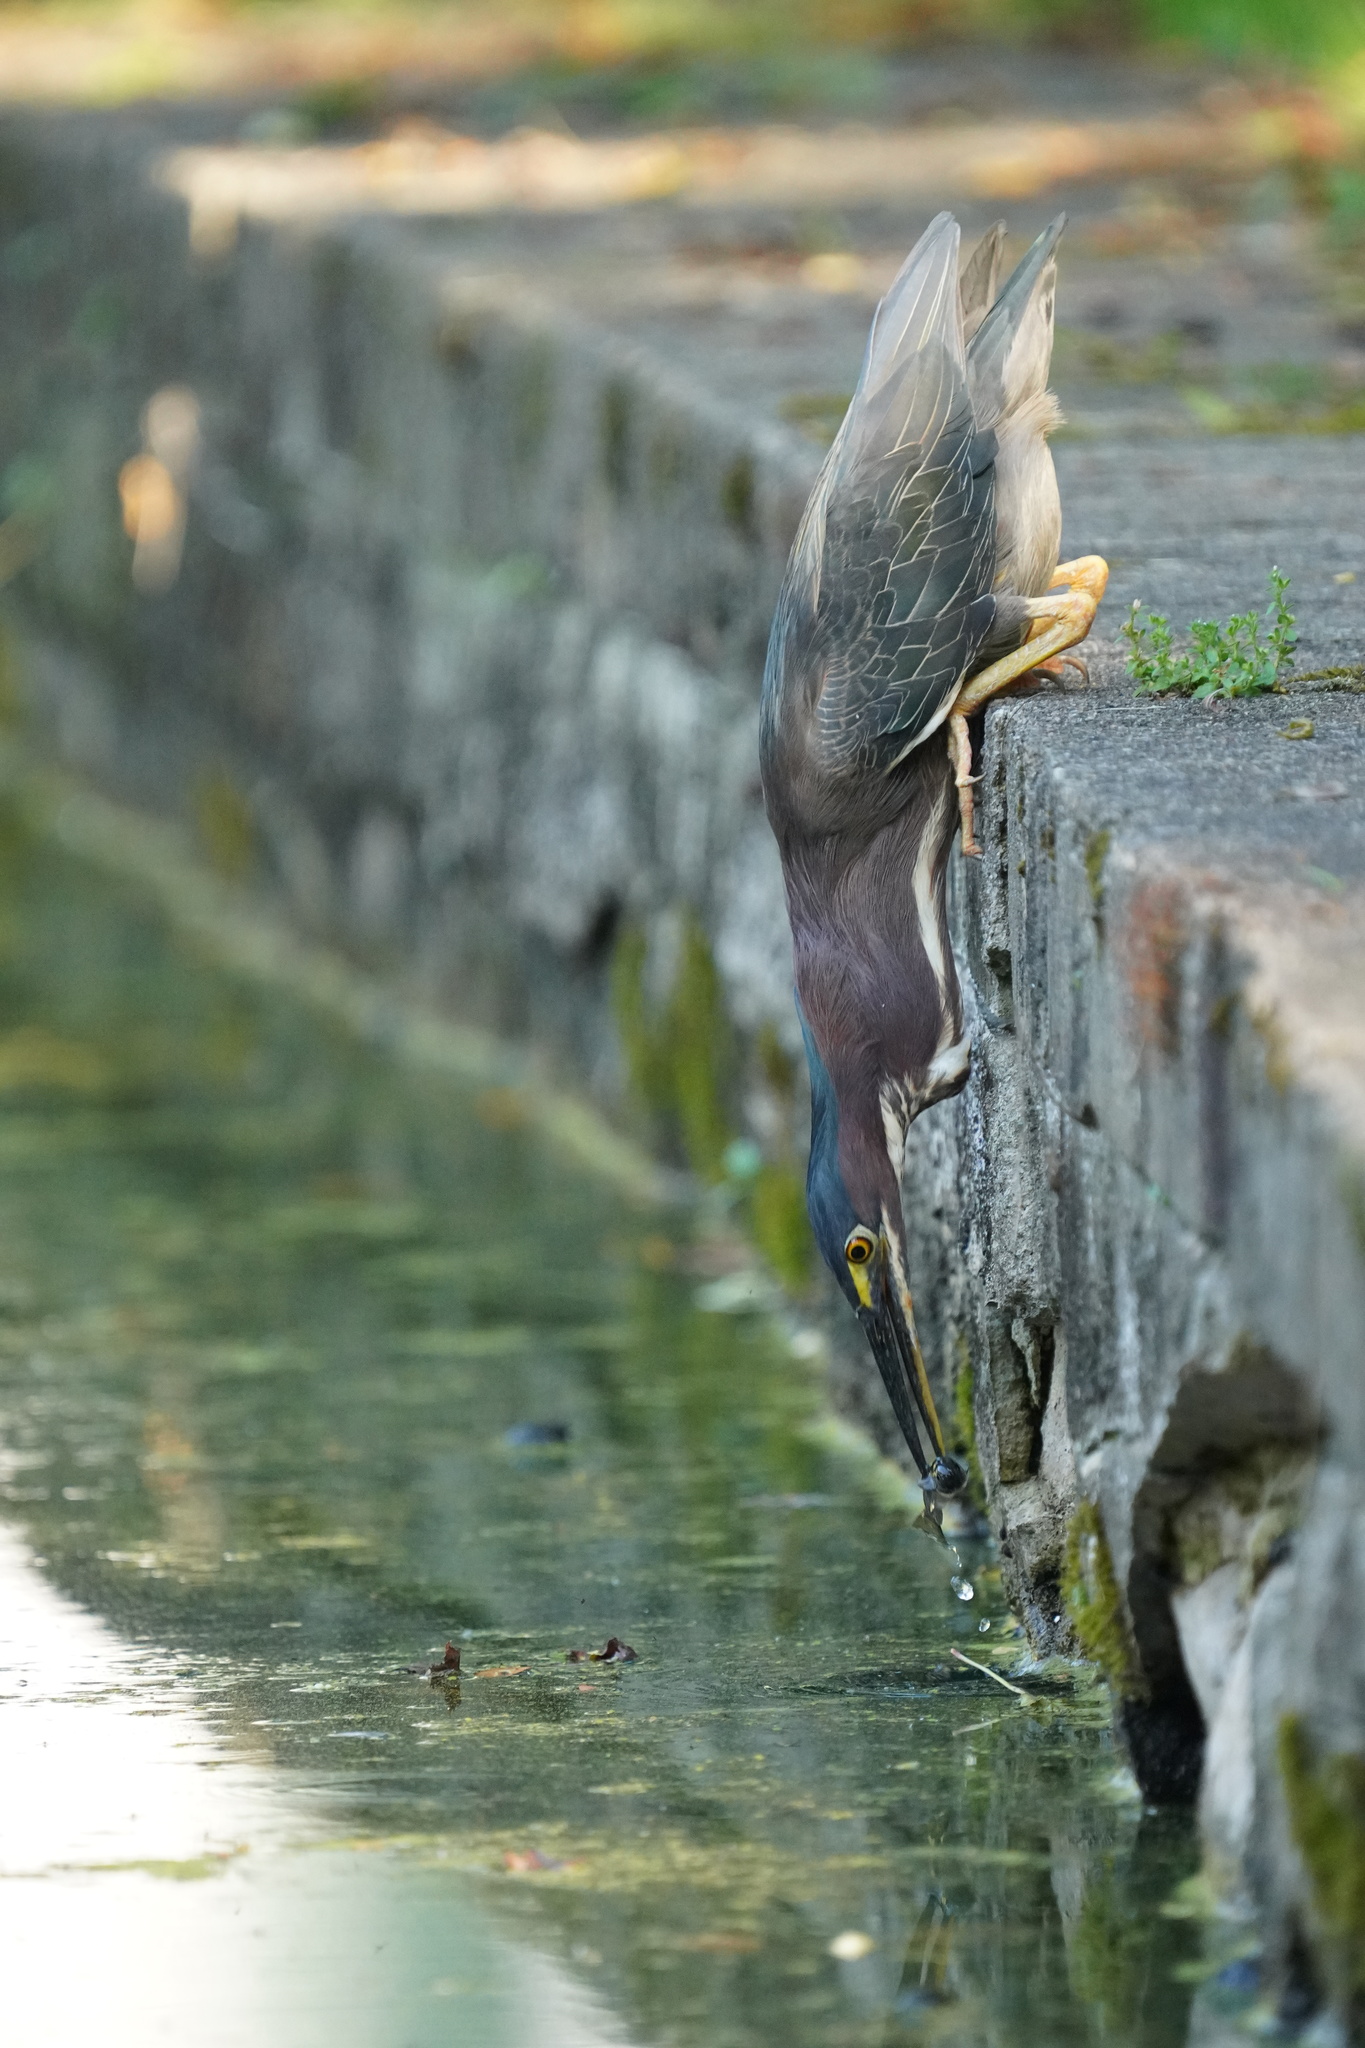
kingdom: Animalia
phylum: Chordata
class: Aves
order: Pelecaniformes
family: Ardeidae
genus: Butorides
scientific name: Butorides virescens
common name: Green heron
